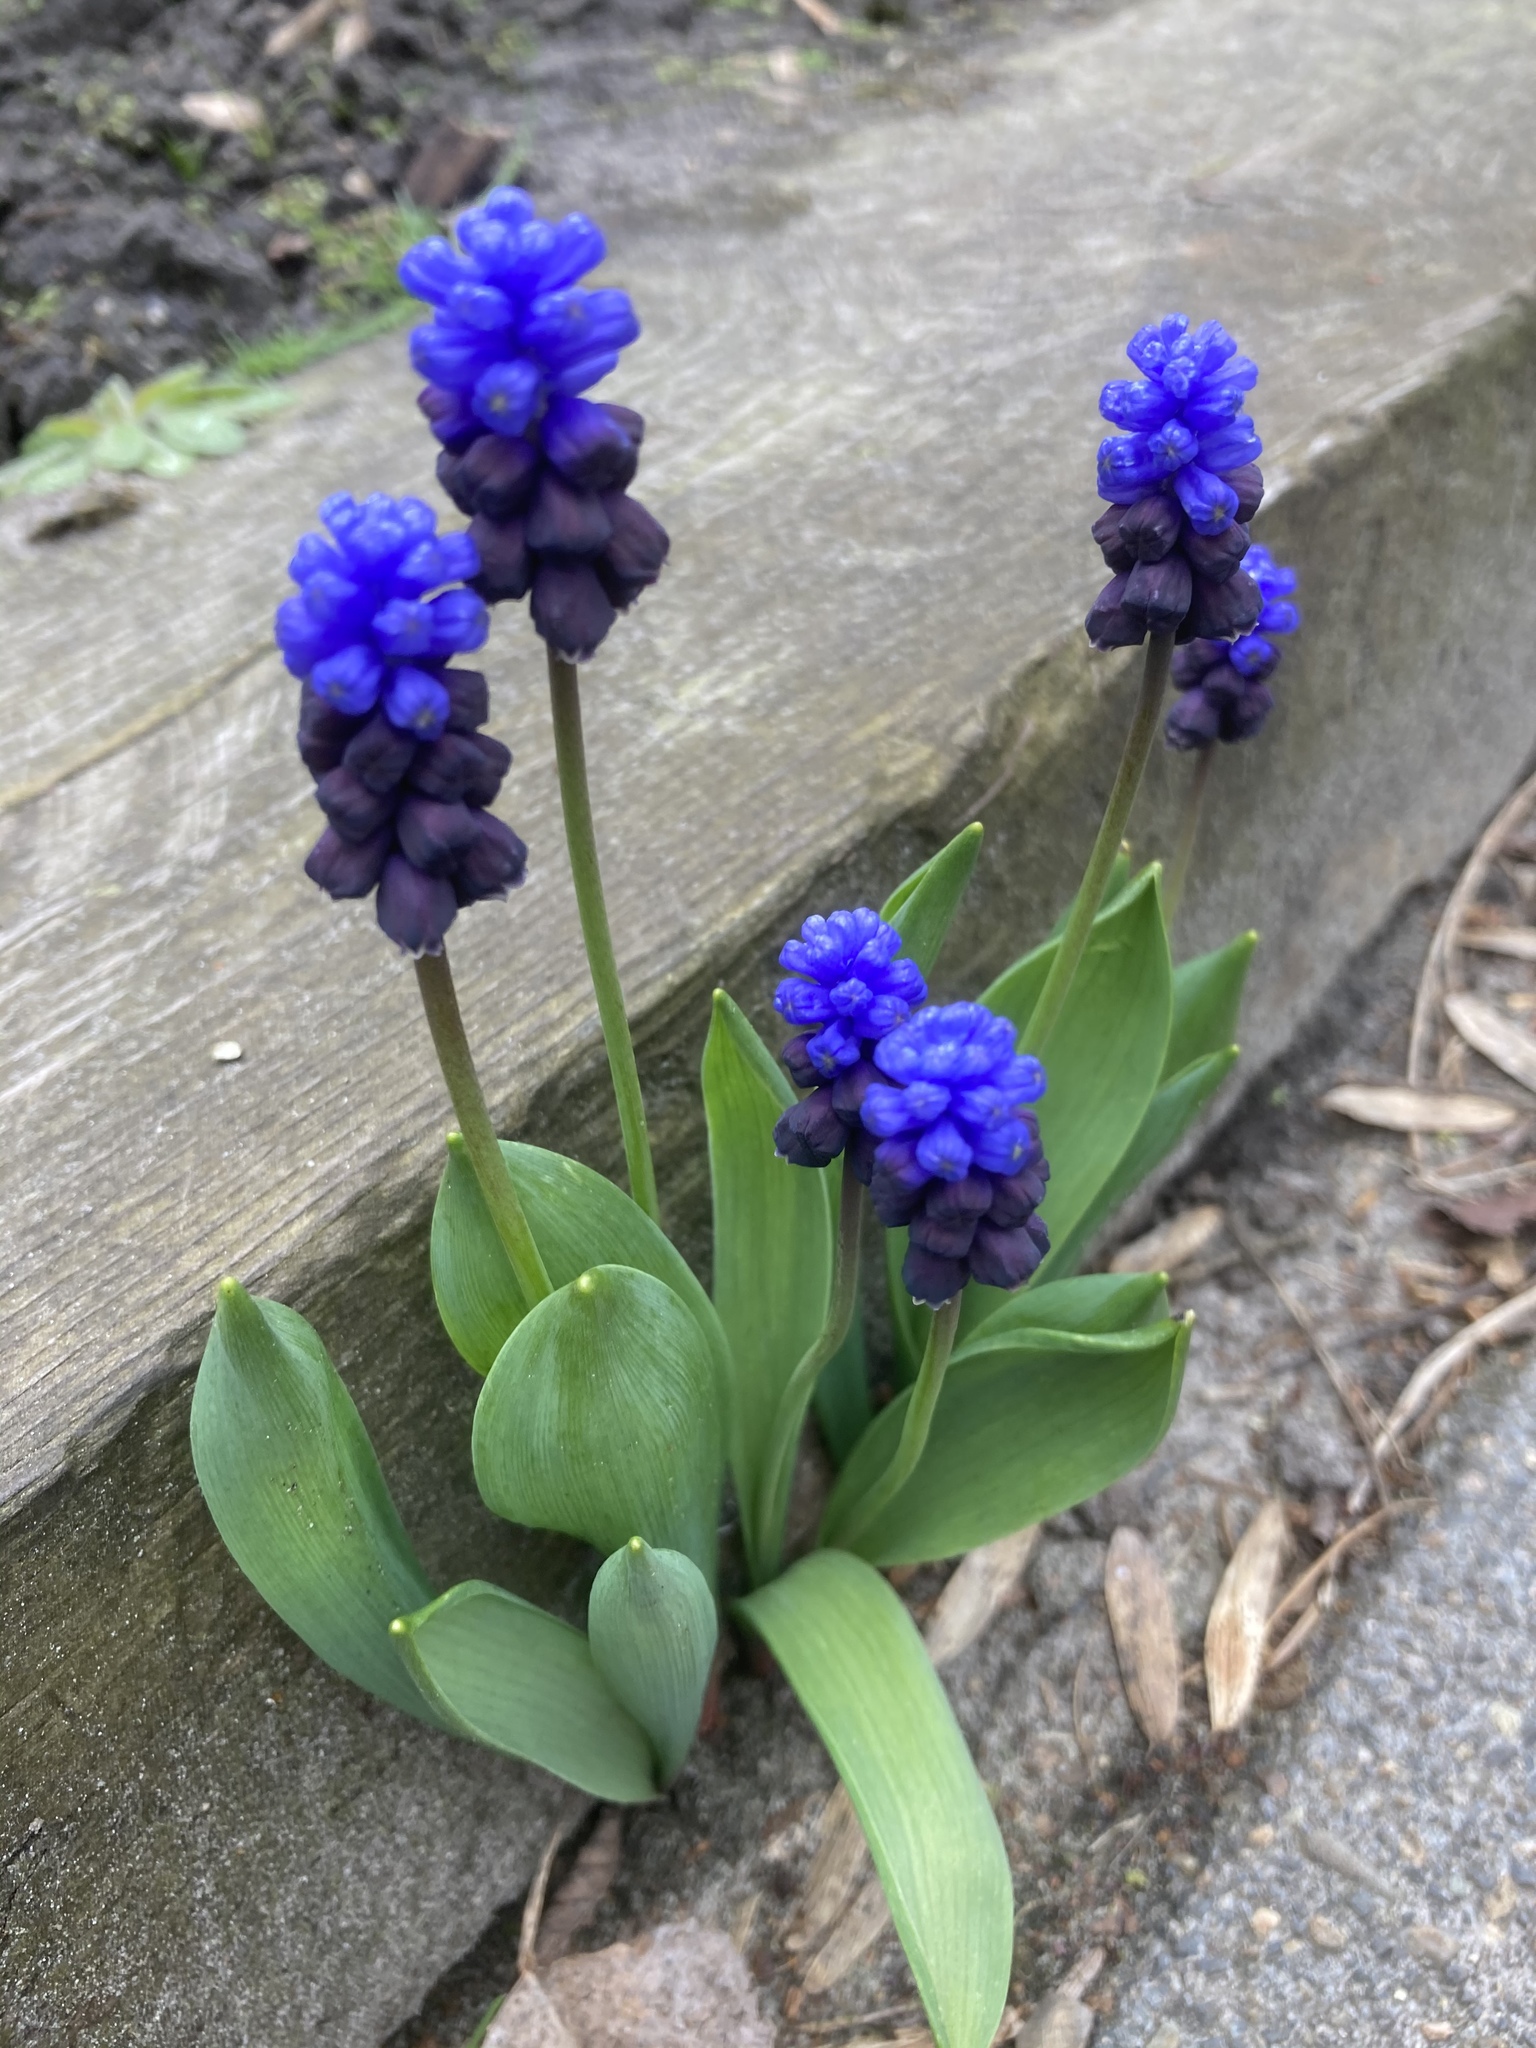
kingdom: Plantae
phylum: Tracheophyta
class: Liliopsida
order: Asparagales
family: Asparagaceae
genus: Muscari
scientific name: Muscari latifolium
